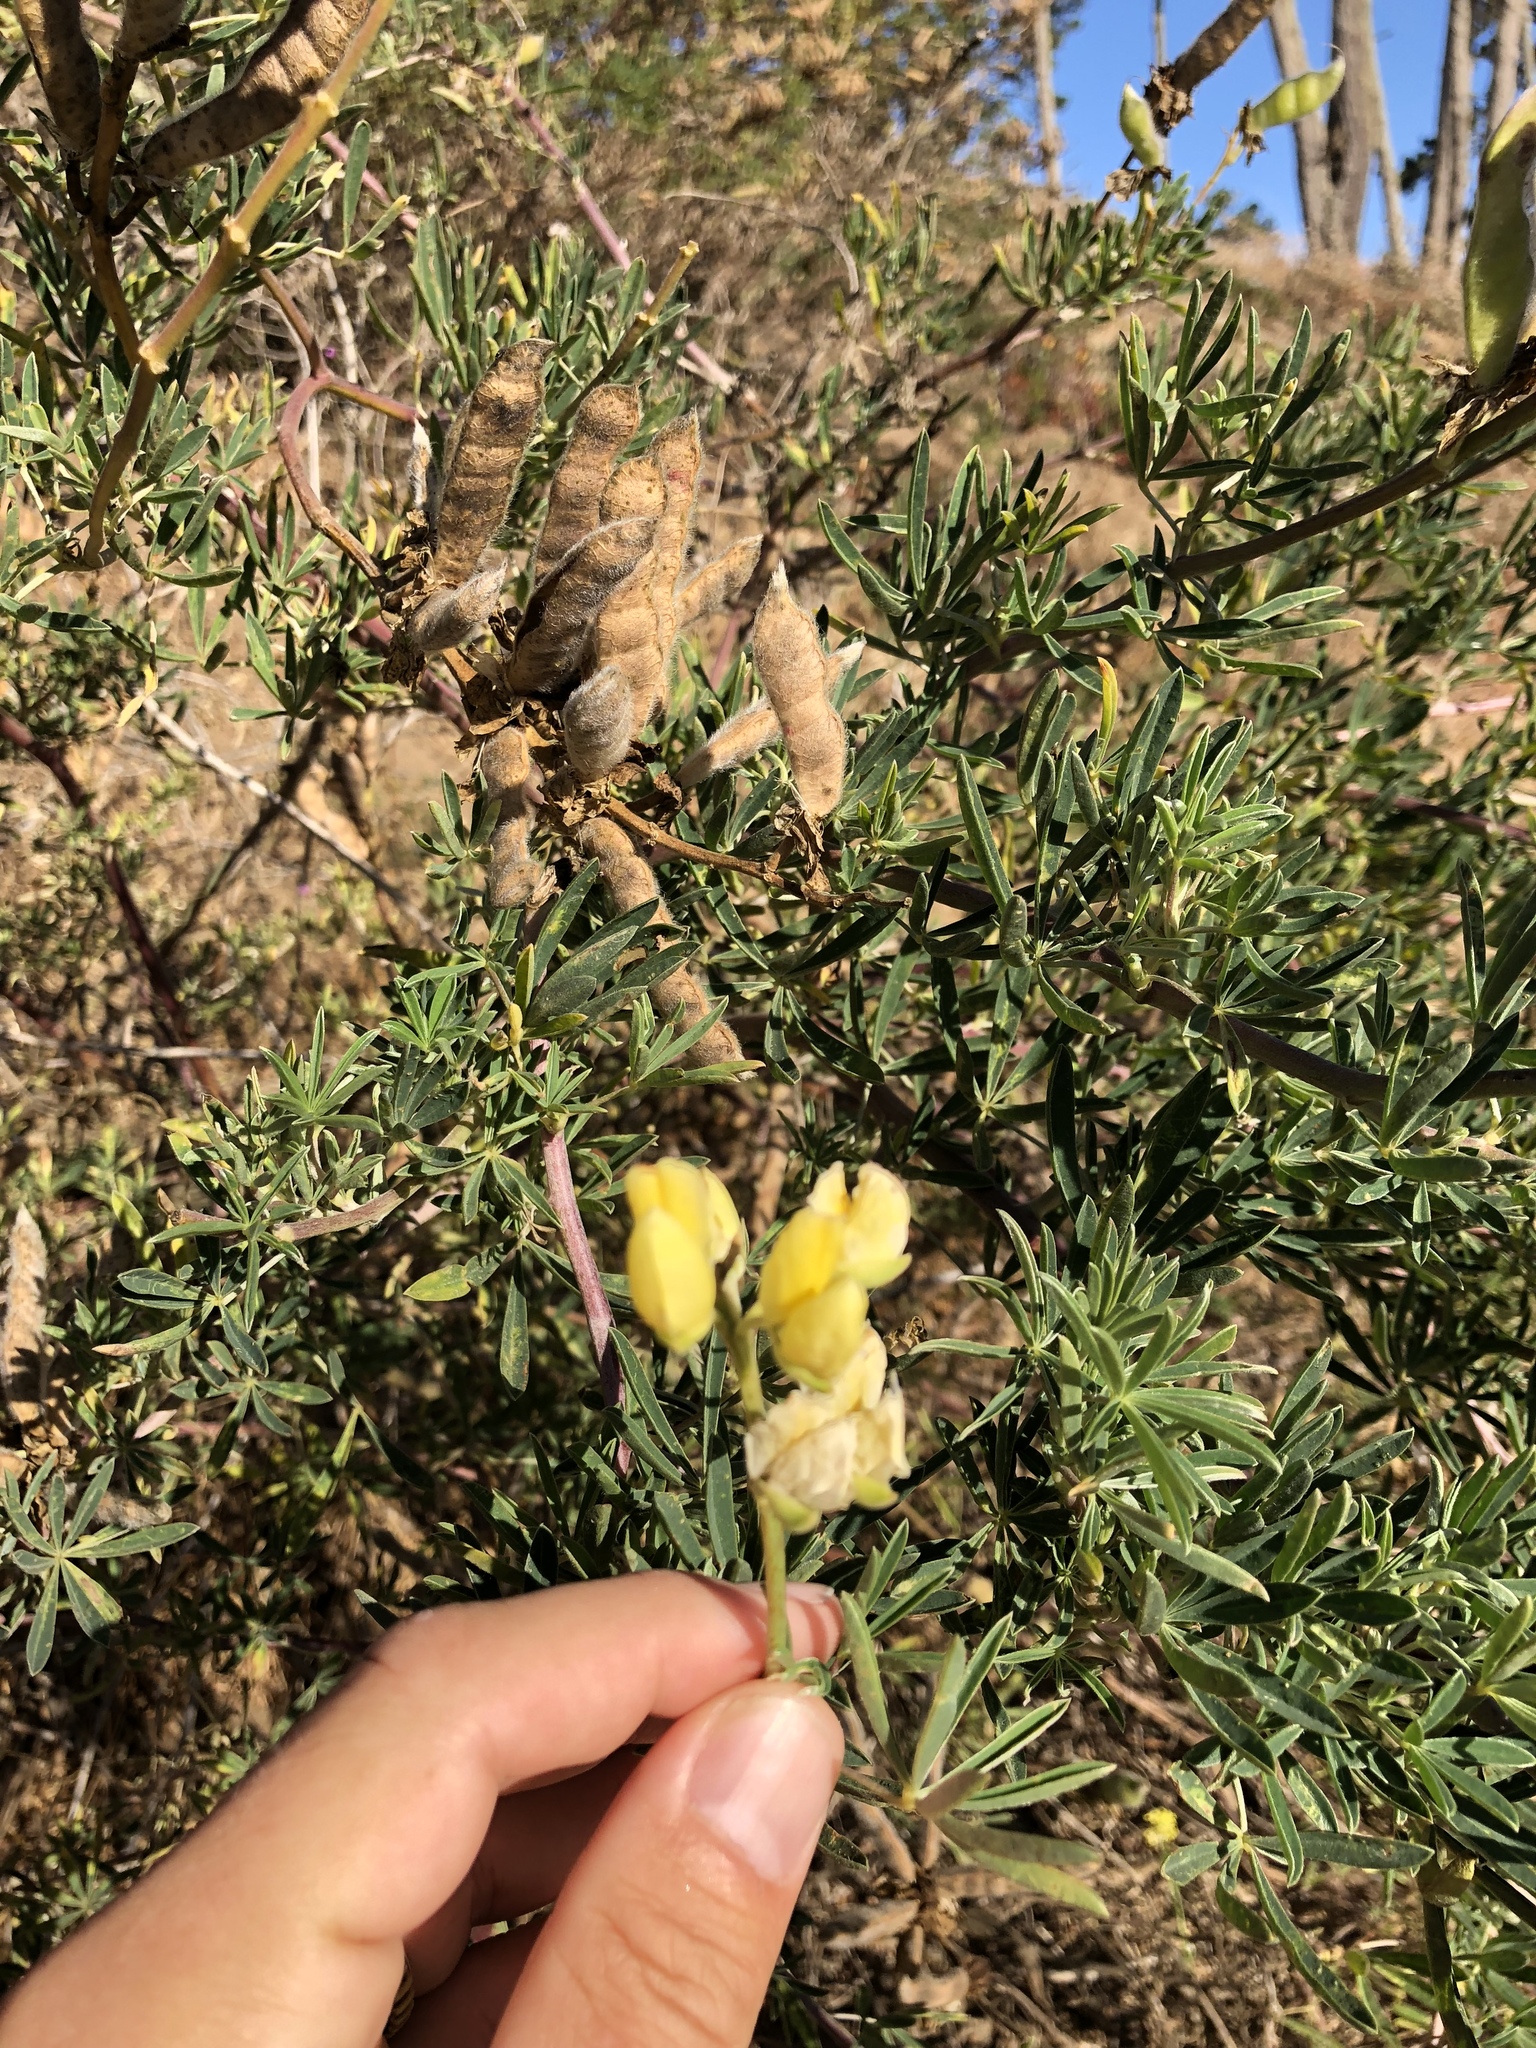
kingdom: Plantae
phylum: Tracheophyta
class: Magnoliopsida
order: Fabales
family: Fabaceae
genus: Lupinus
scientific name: Lupinus arboreus
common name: Yellow bush lupine
